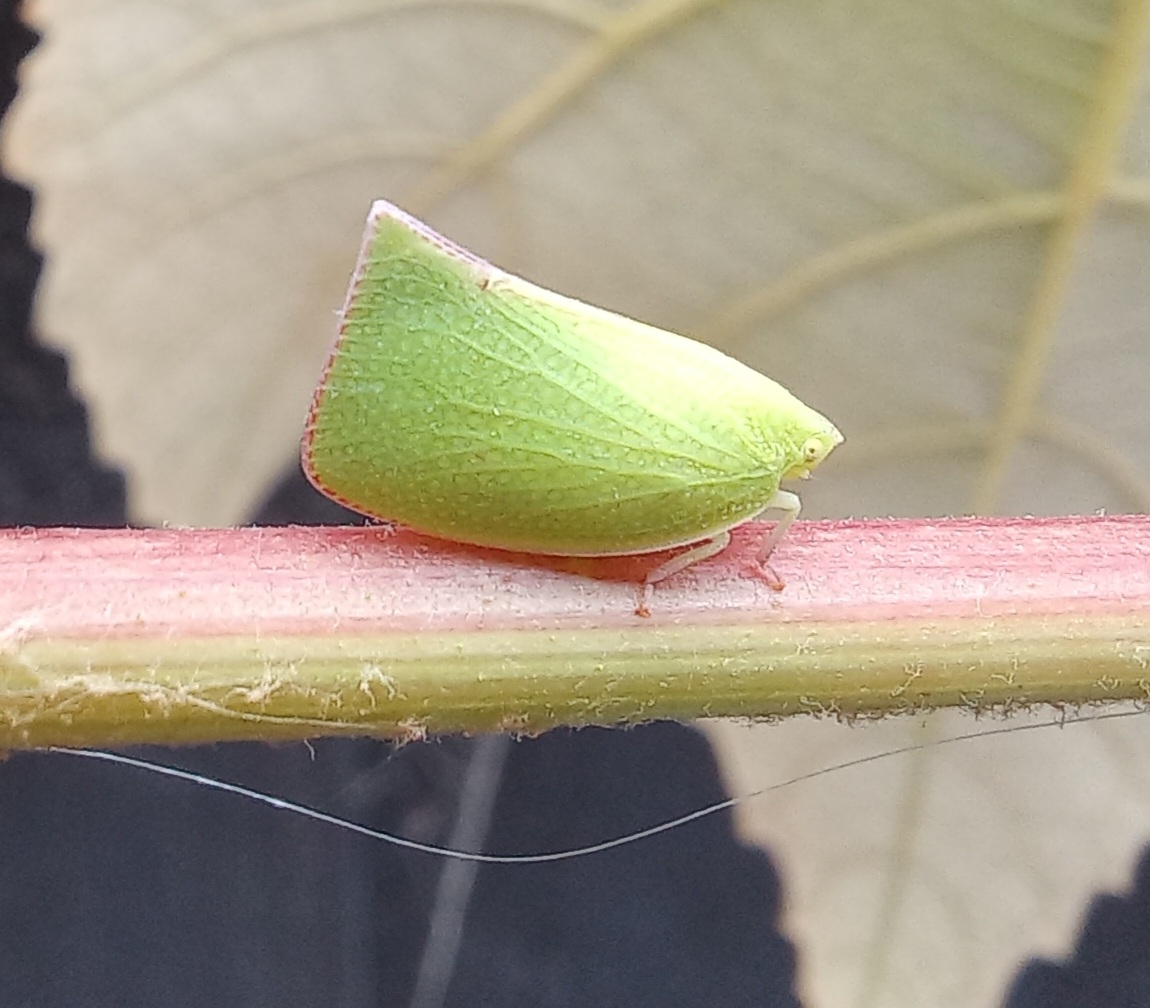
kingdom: Animalia
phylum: Arthropoda
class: Insecta
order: Hemiptera
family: Flatidae
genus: Siphanta
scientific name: Siphanta acuta
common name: Torpedo bug
